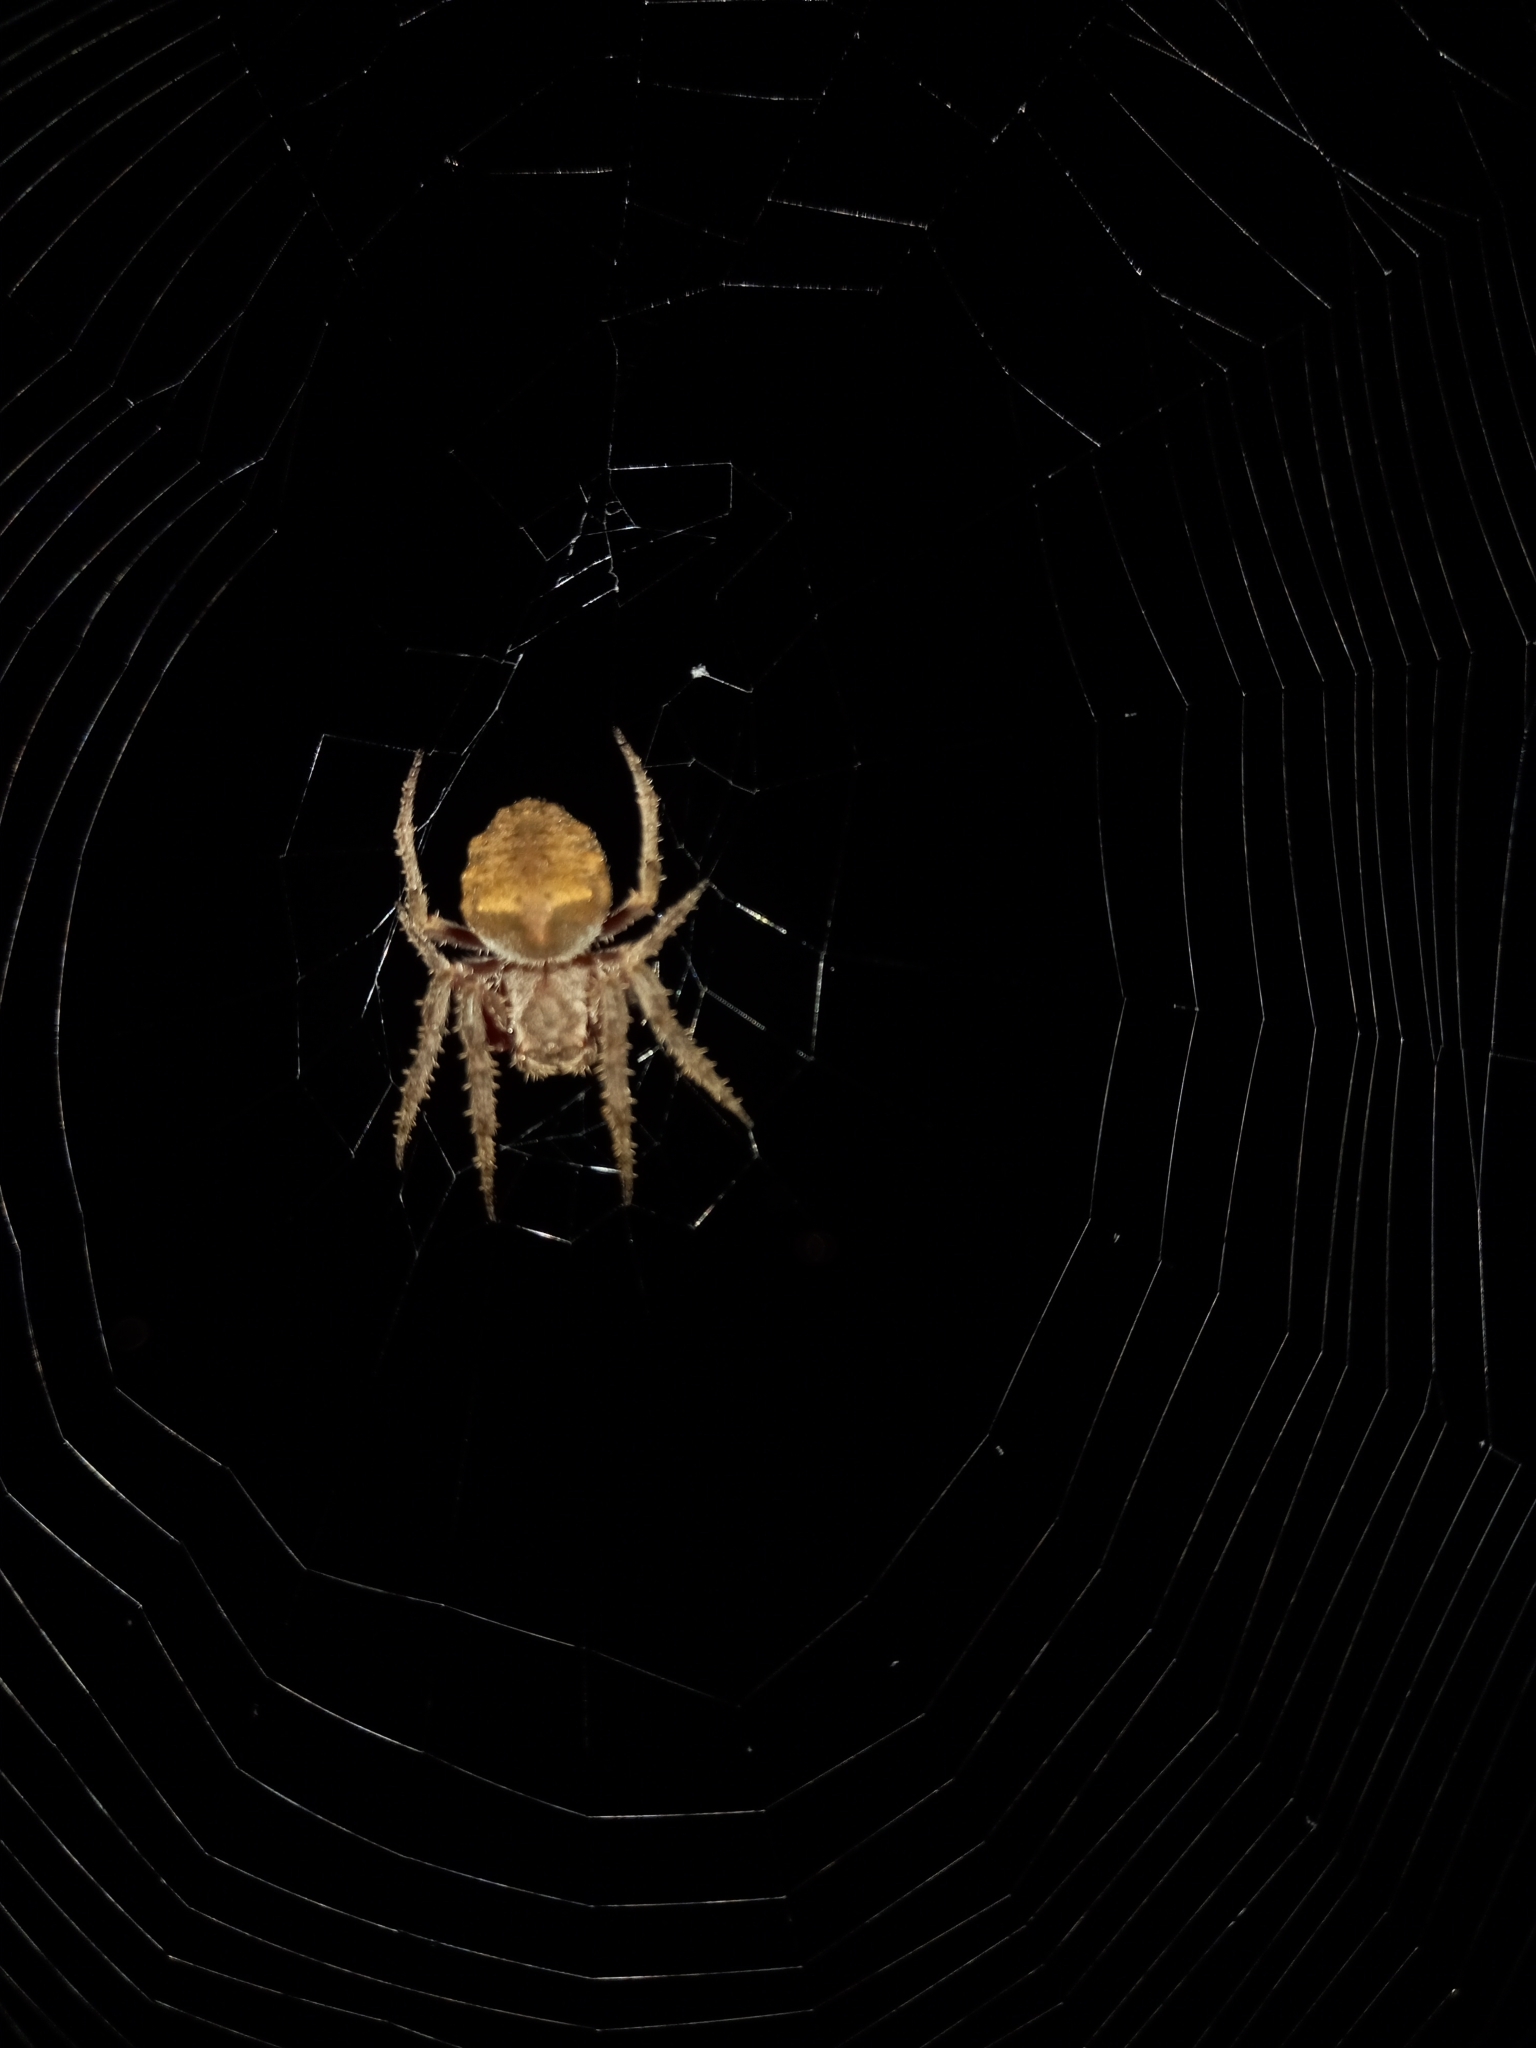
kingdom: Animalia
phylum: Arthropoda
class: Arachnida
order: Araneae
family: Araneidae
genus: Parawixia
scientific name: Parawixia audax
